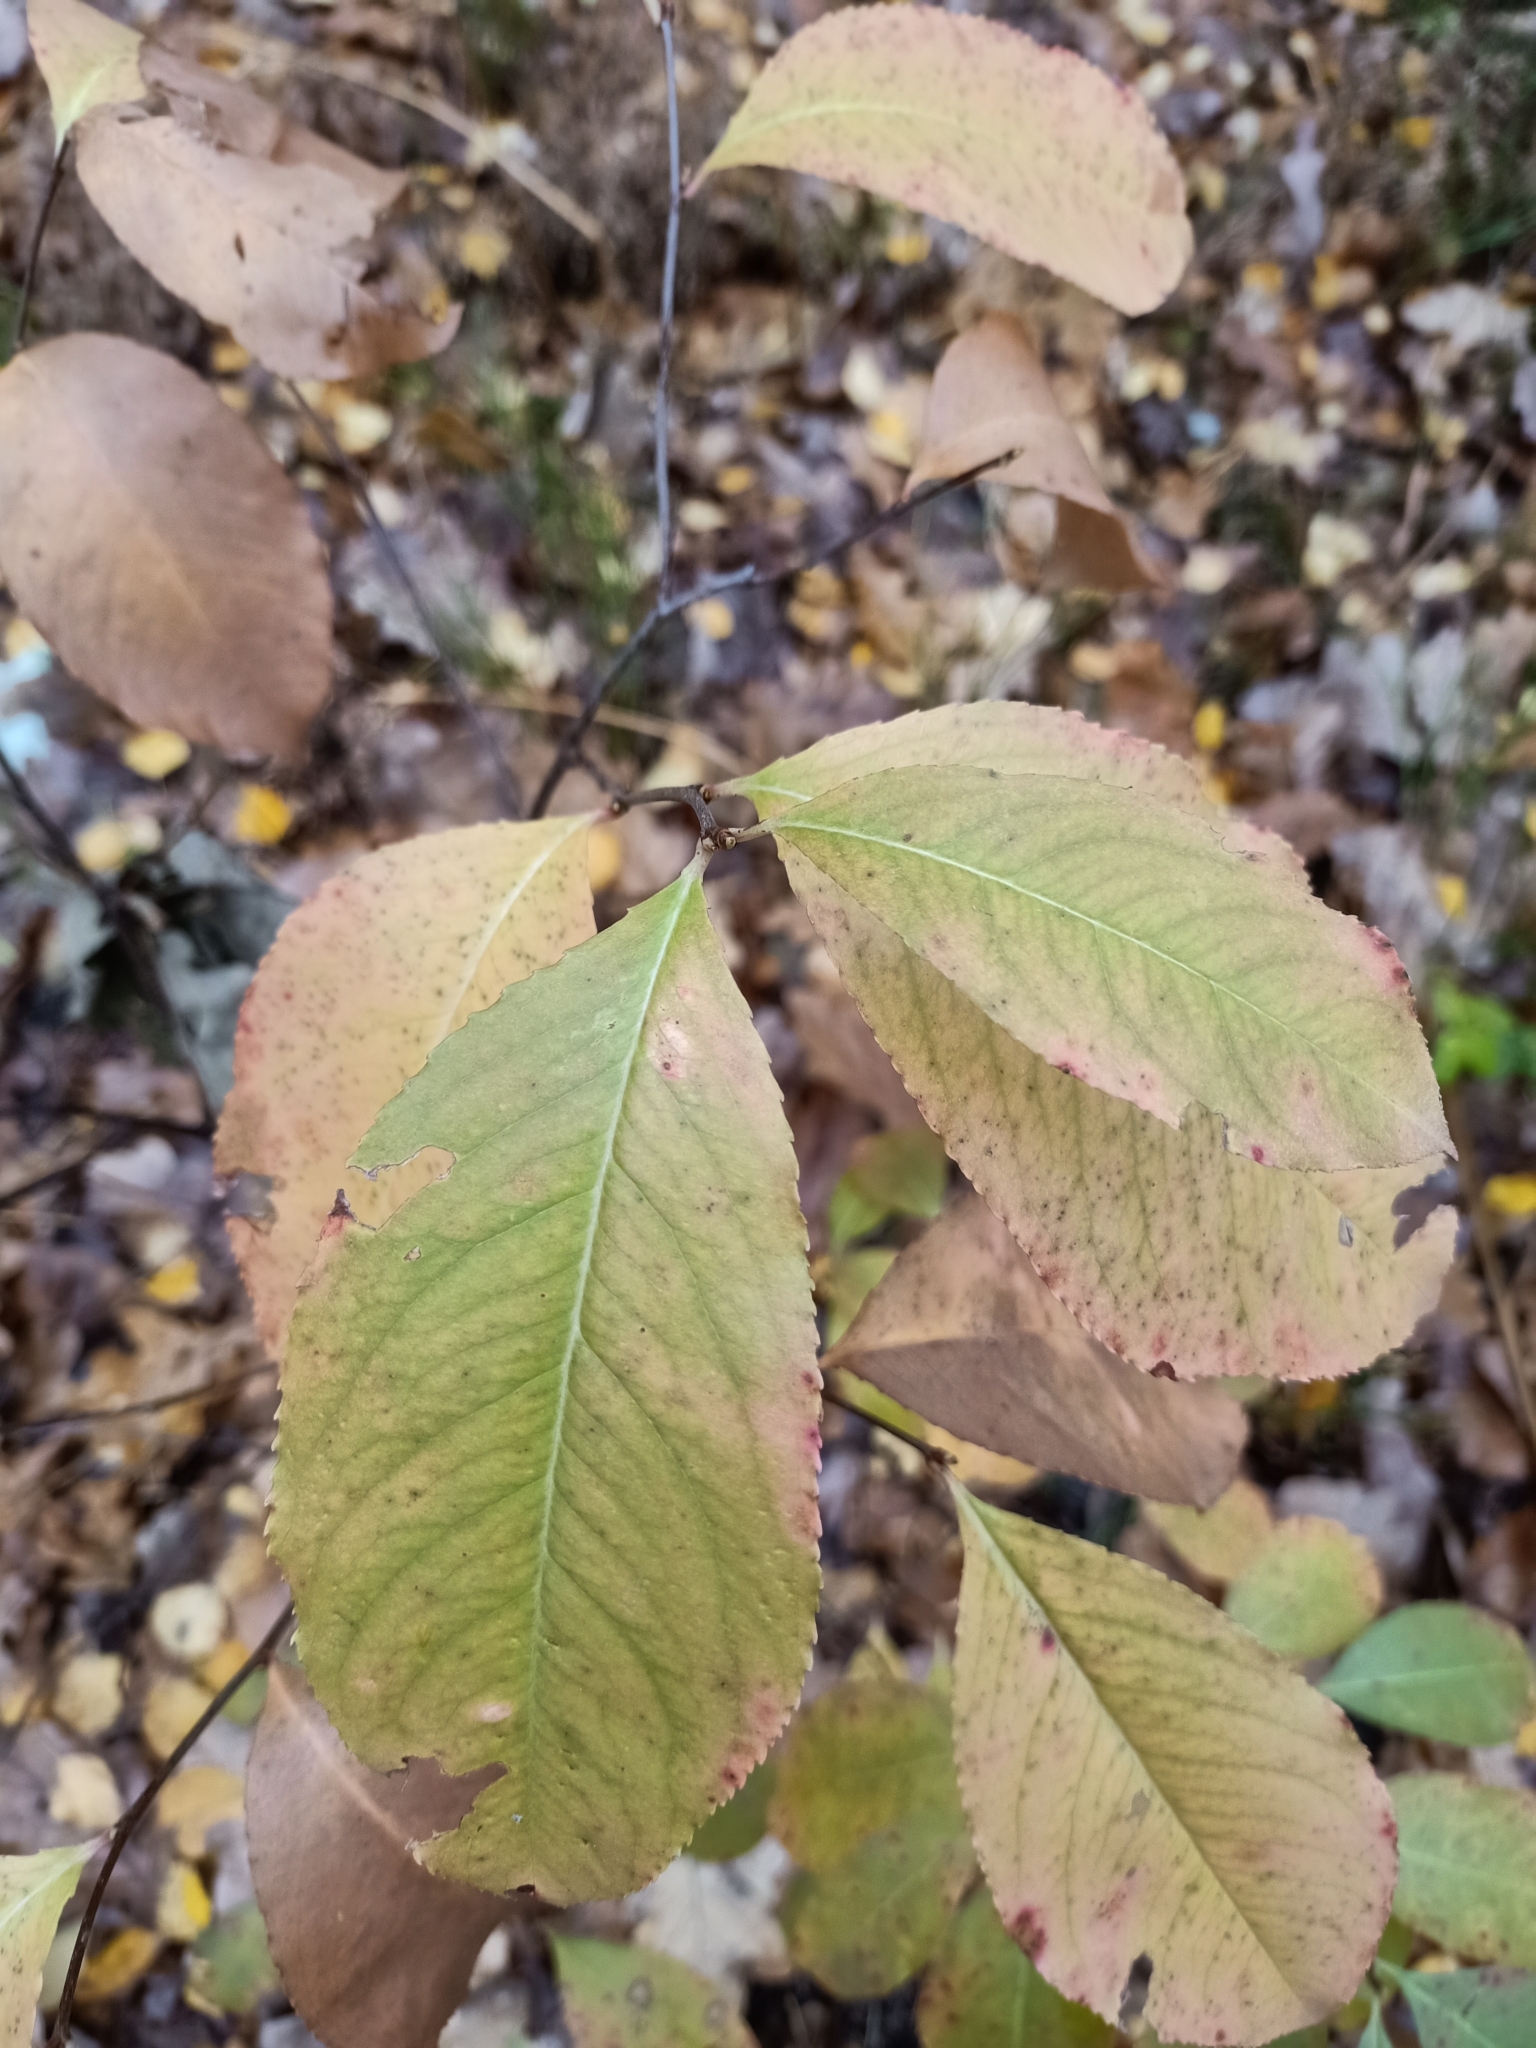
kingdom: Plantae
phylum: Tracheophyta
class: Magnoliopsida
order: Rosales
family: Rosaceae
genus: Prunus
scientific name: Prunus serotina
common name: Black cherry
